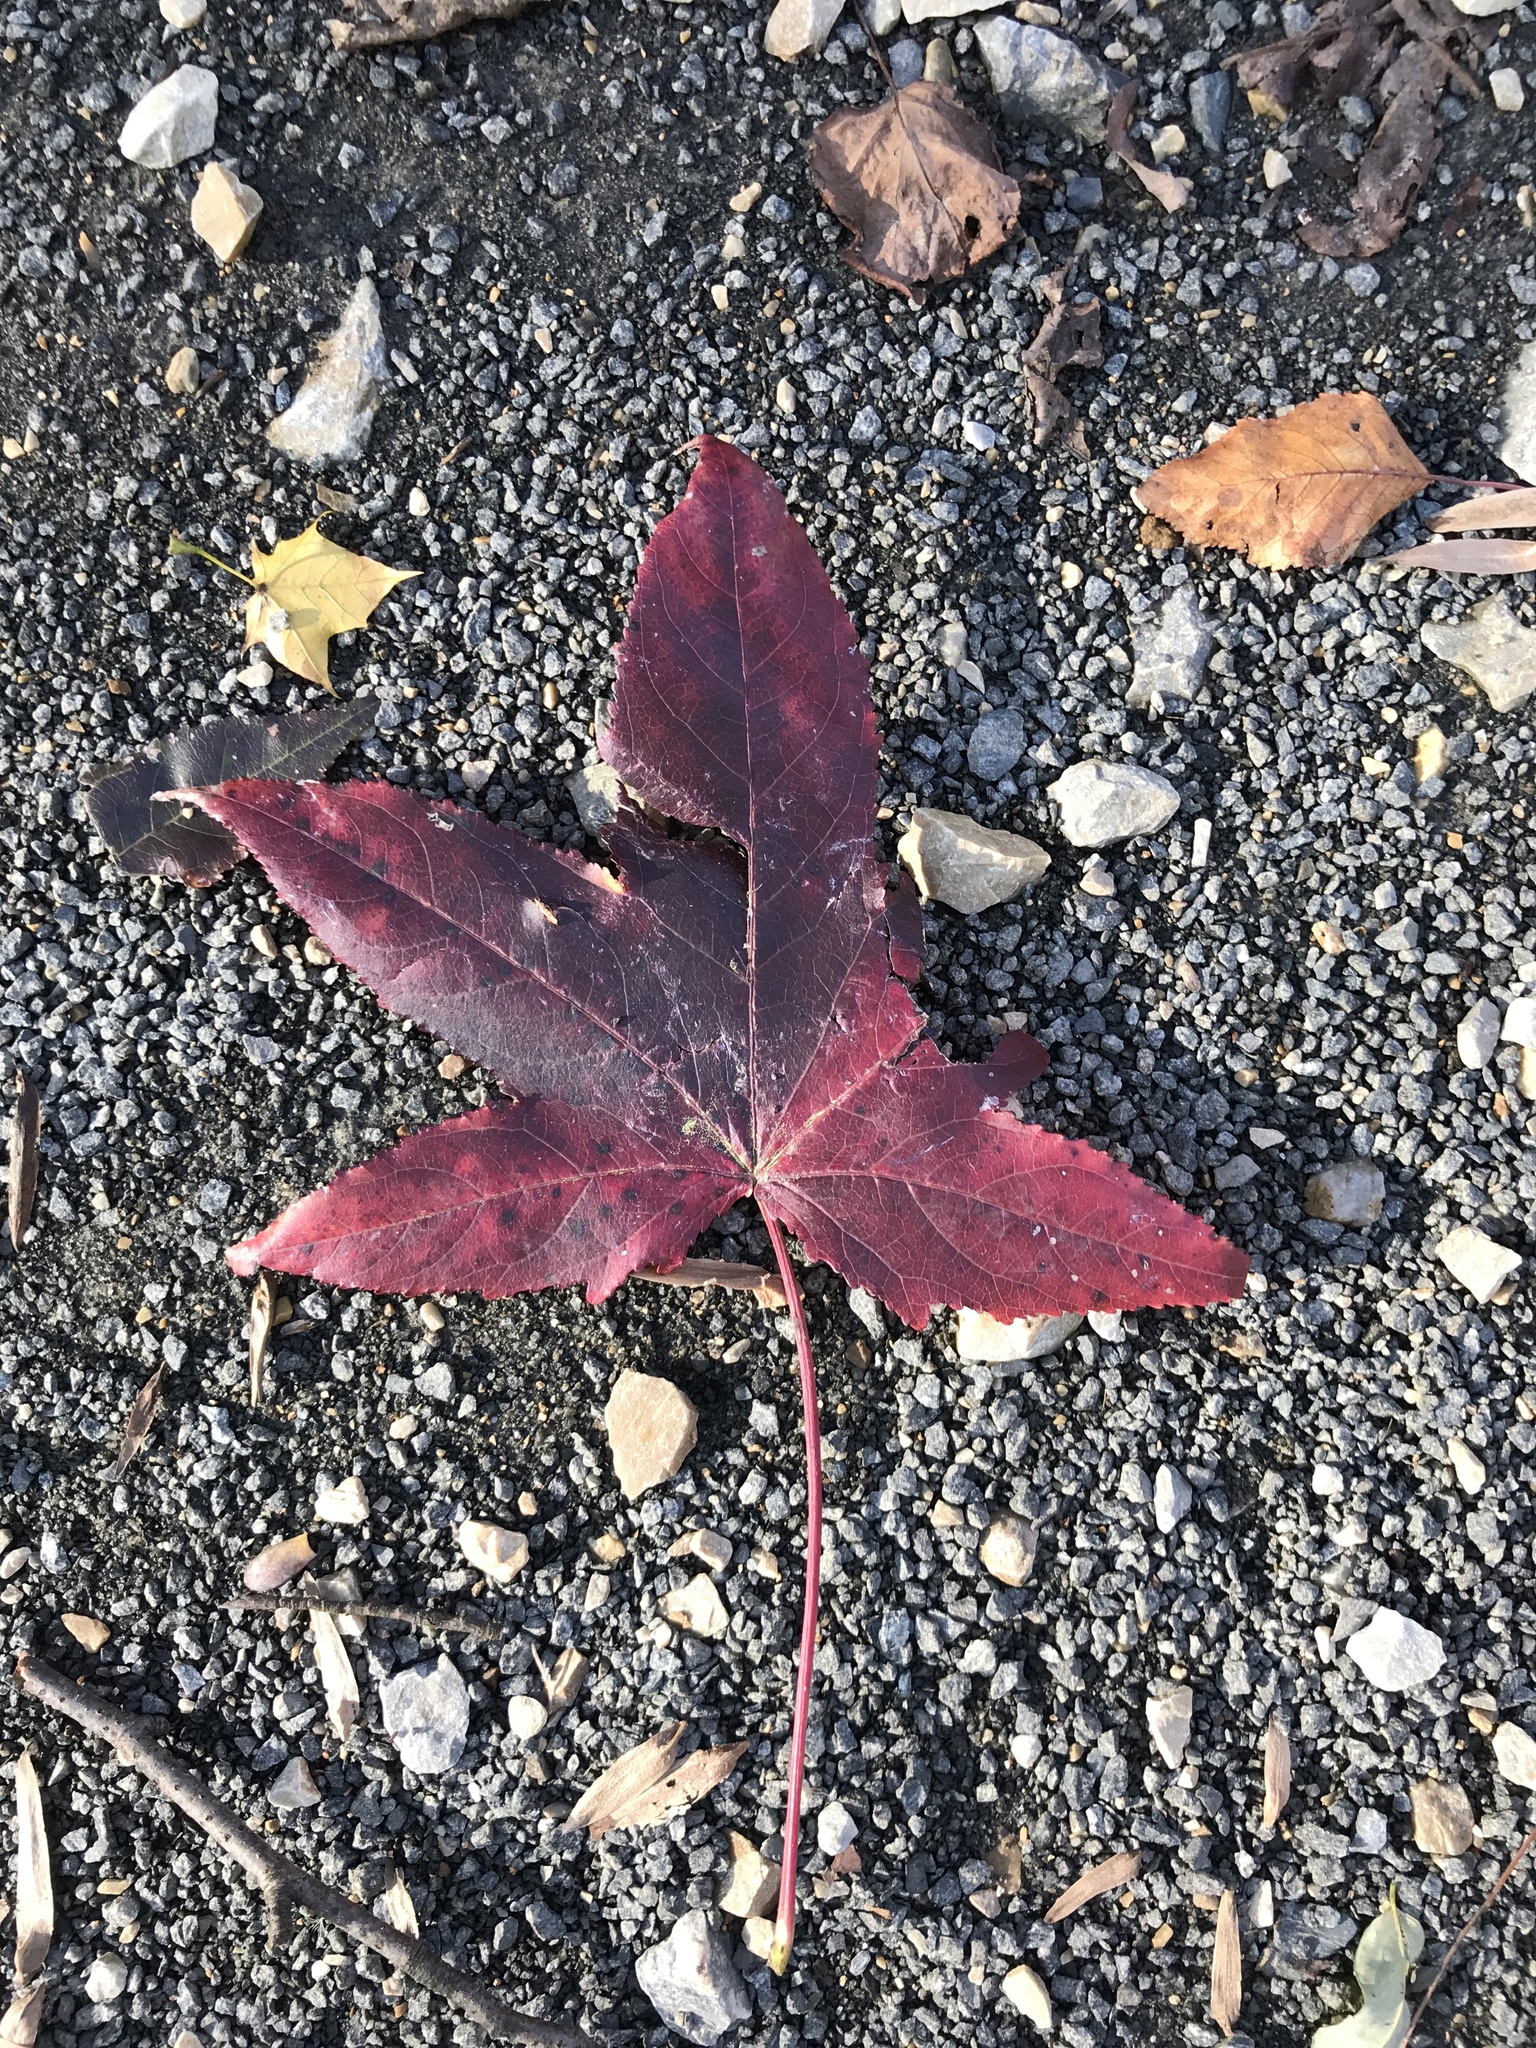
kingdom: Plantae
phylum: Tracheophyta
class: Magnoliopsida
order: Saxifragales
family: Altingiaceae
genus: Liquidambar
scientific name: Liquidambar styraciflua
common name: Sweet gum
